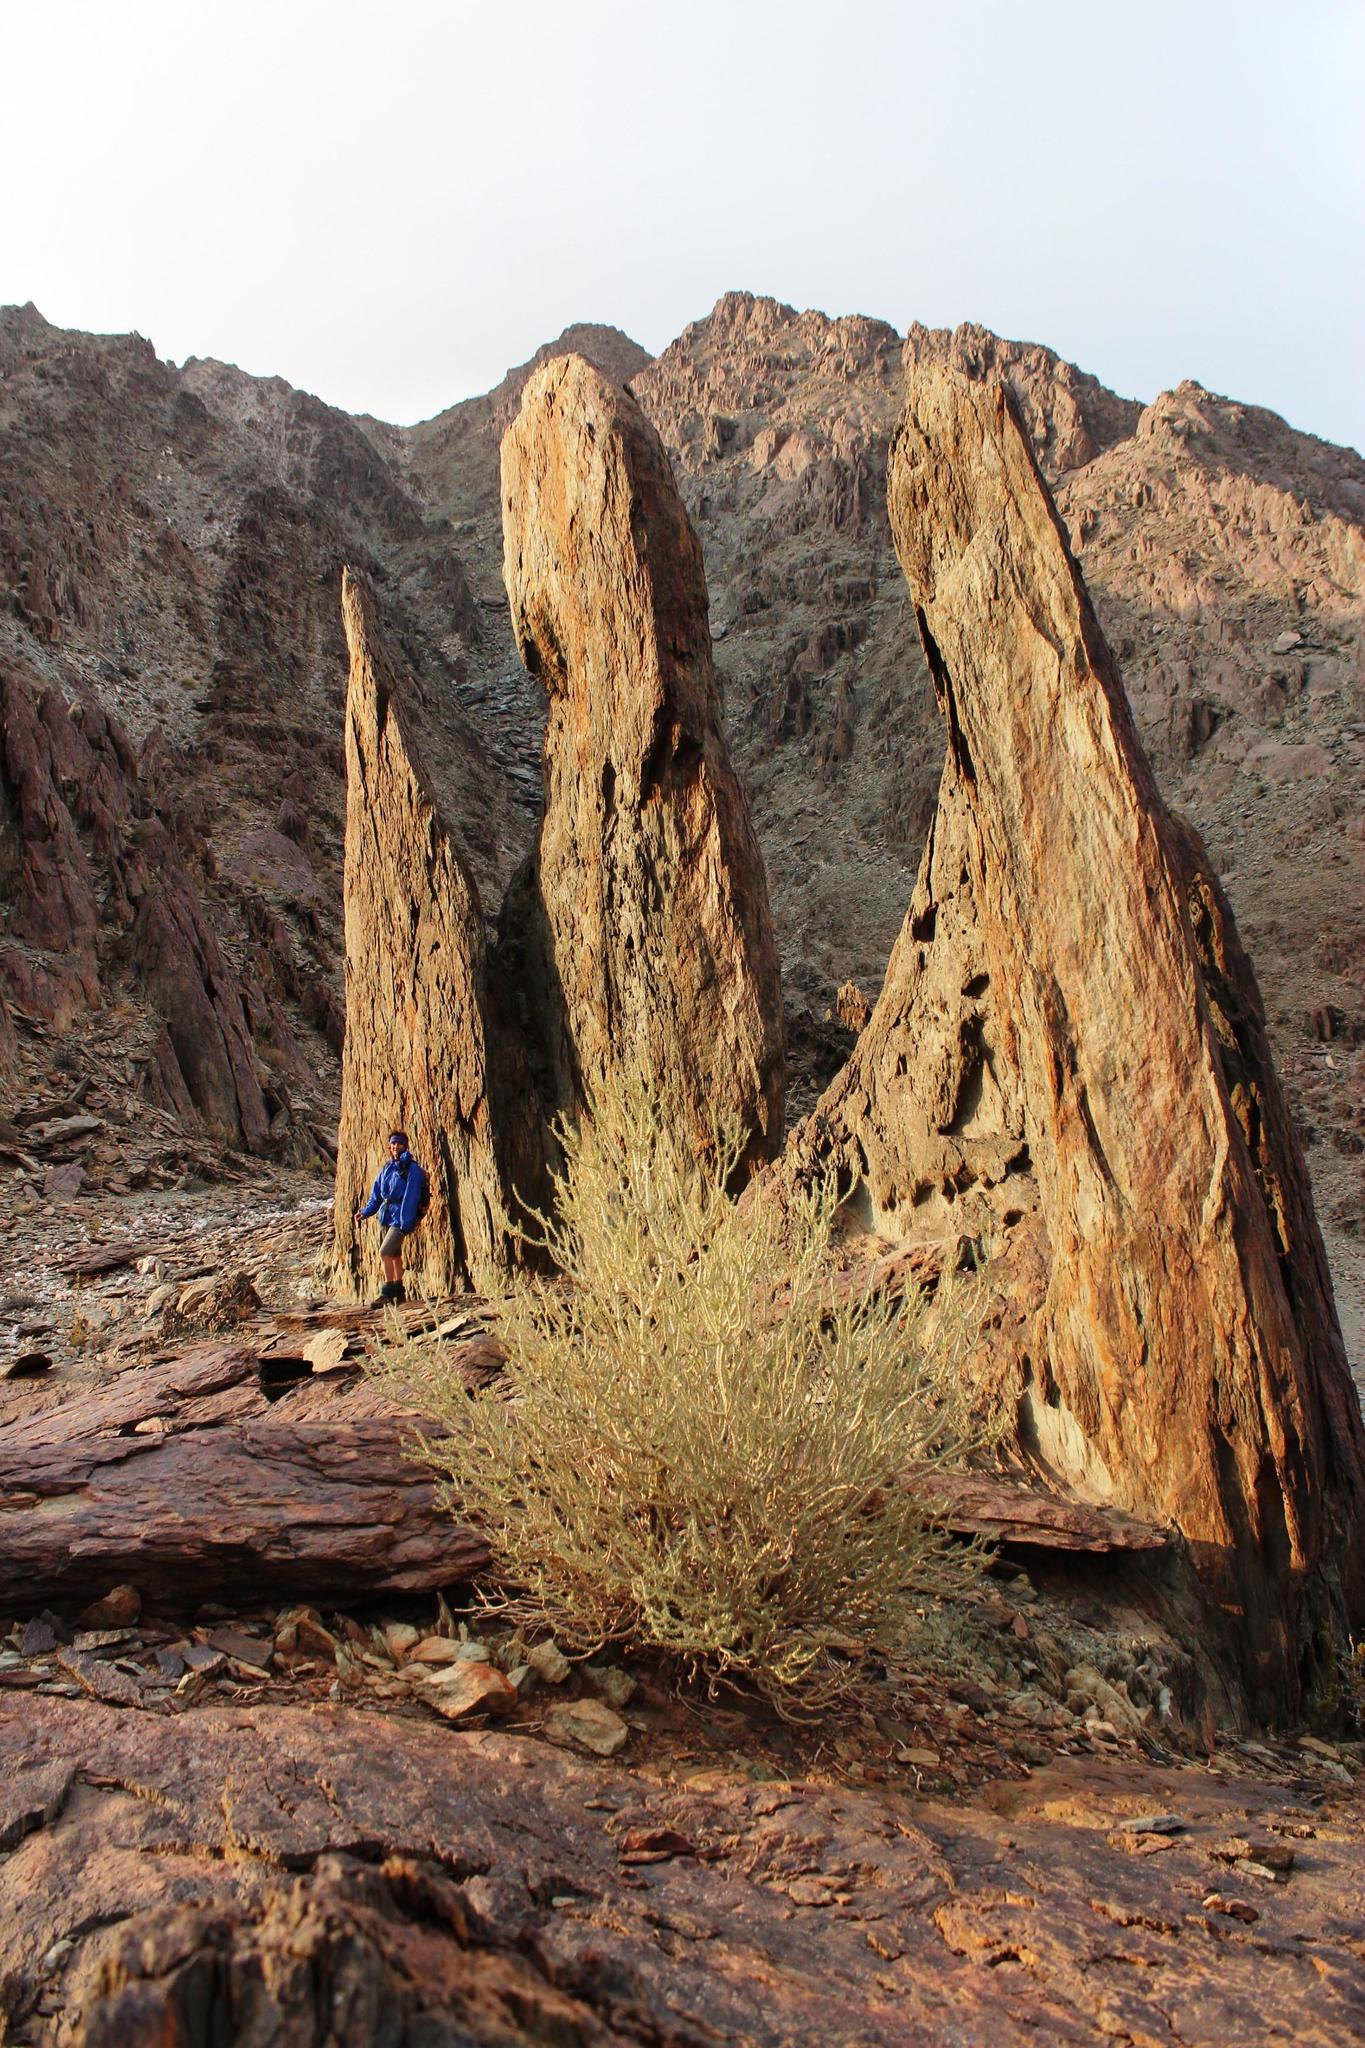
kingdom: Plantae
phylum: Tracheophyta
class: Magnoliopsida
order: Caryophyllales
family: Didiereaceae
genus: Portulacaria
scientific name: Portulacaria namaquensis
